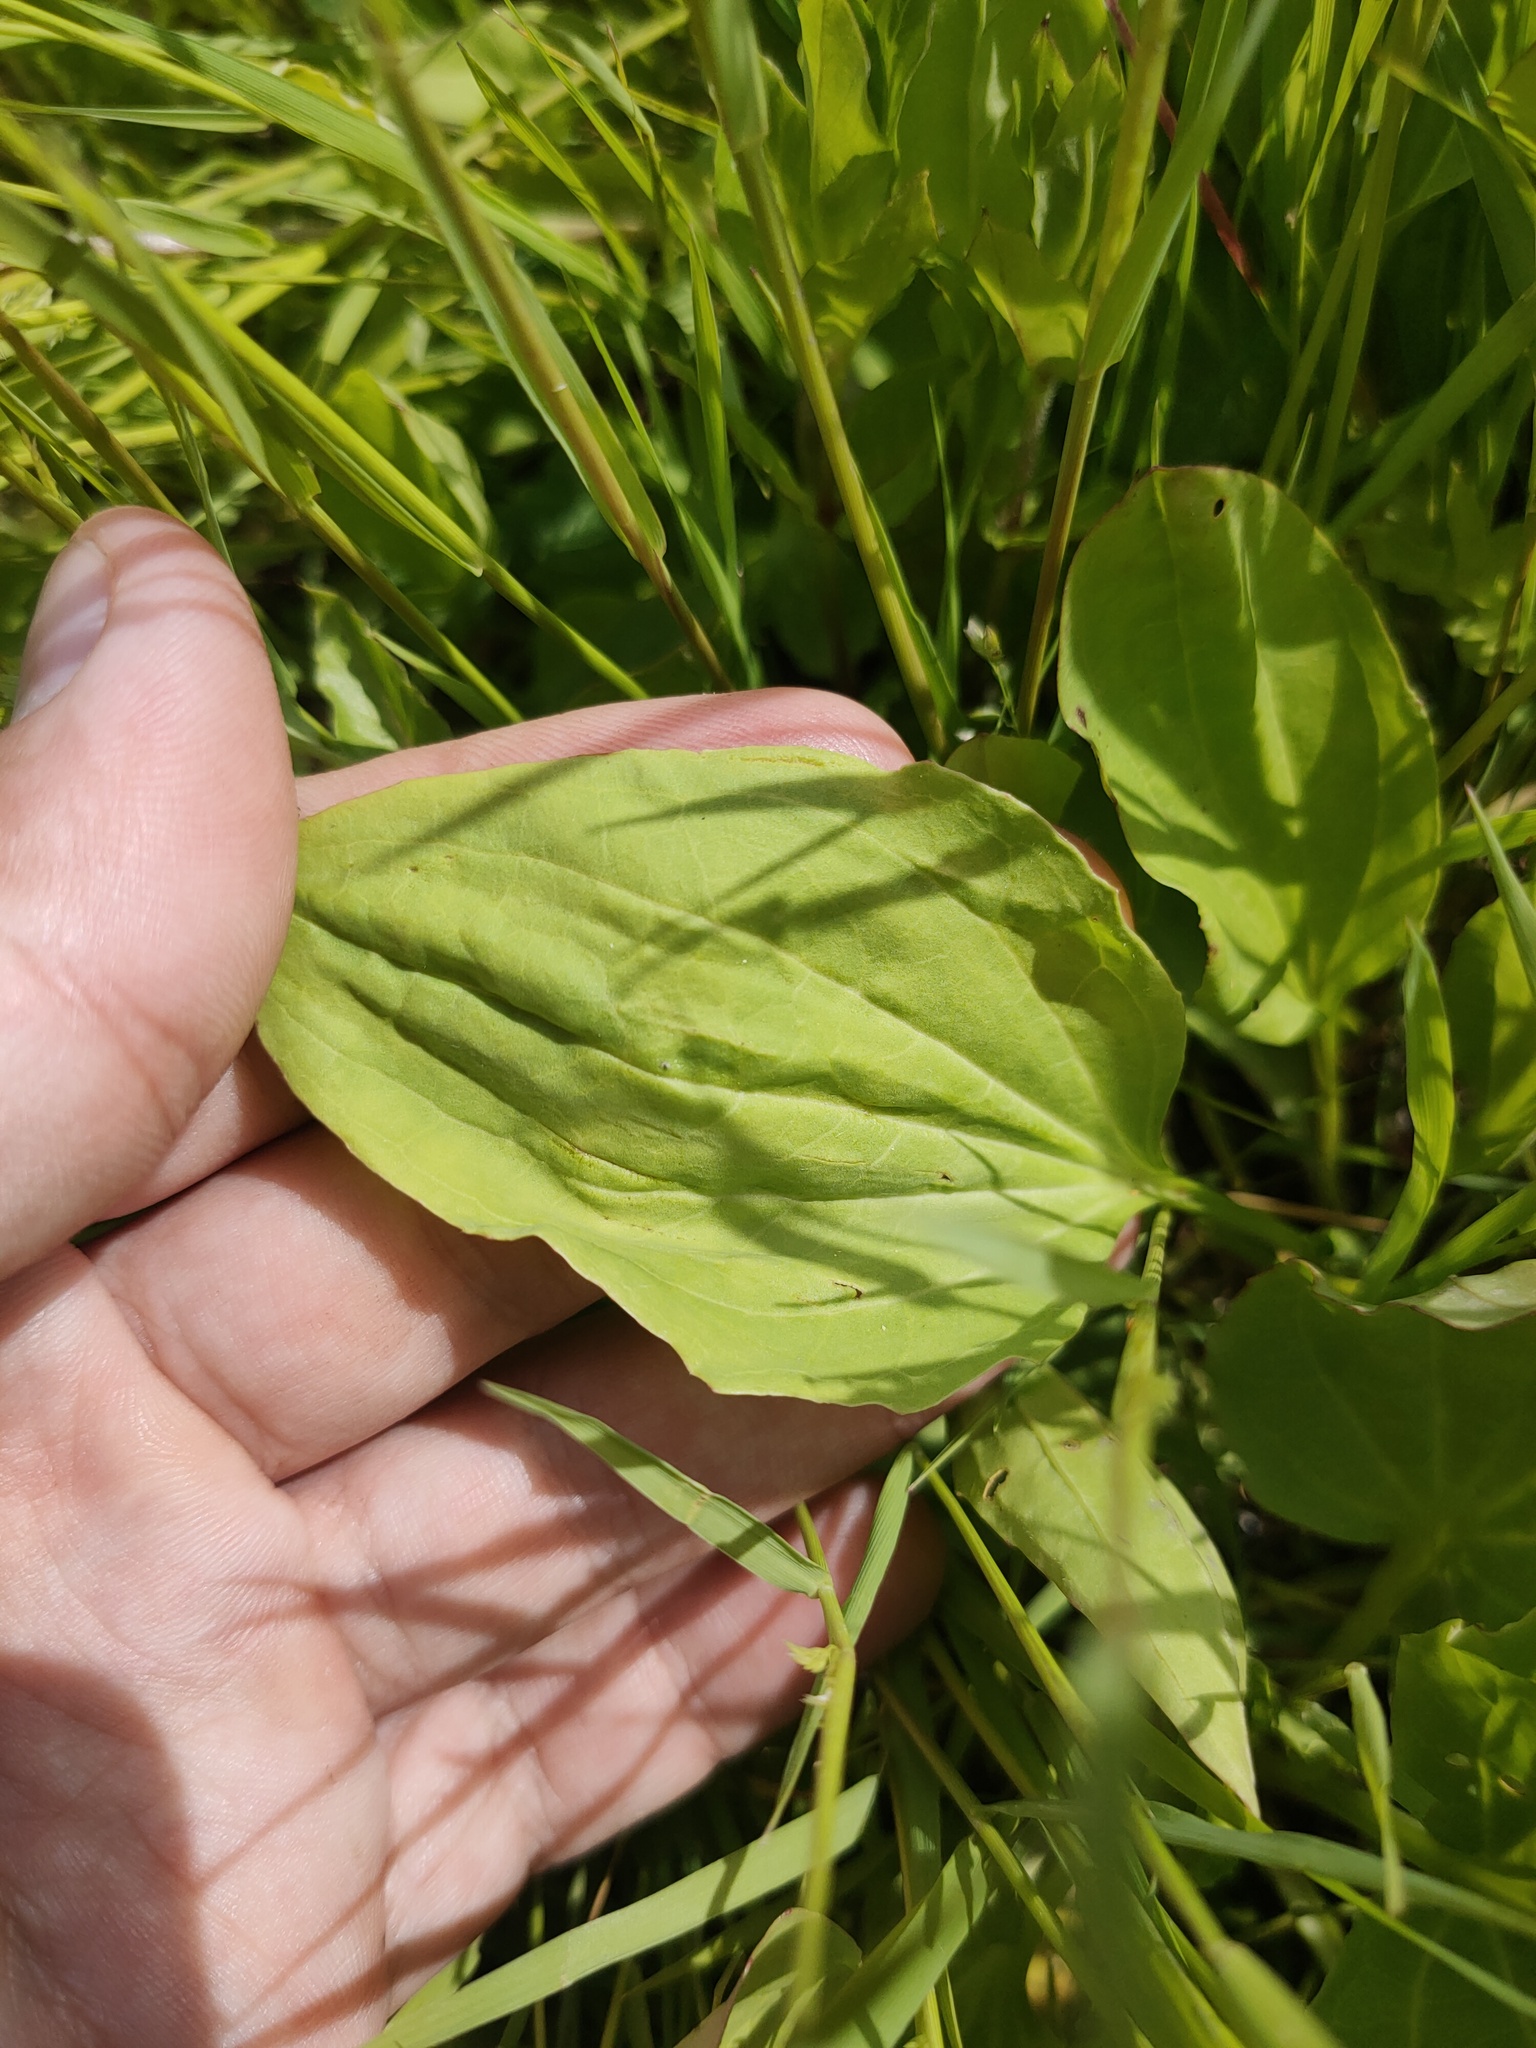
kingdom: Plantae
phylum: Tracheophyta
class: Magnoliopsida
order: Lamiales
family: Plantaginaceae
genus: Plantago
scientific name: Plantago major
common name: Common plantain
